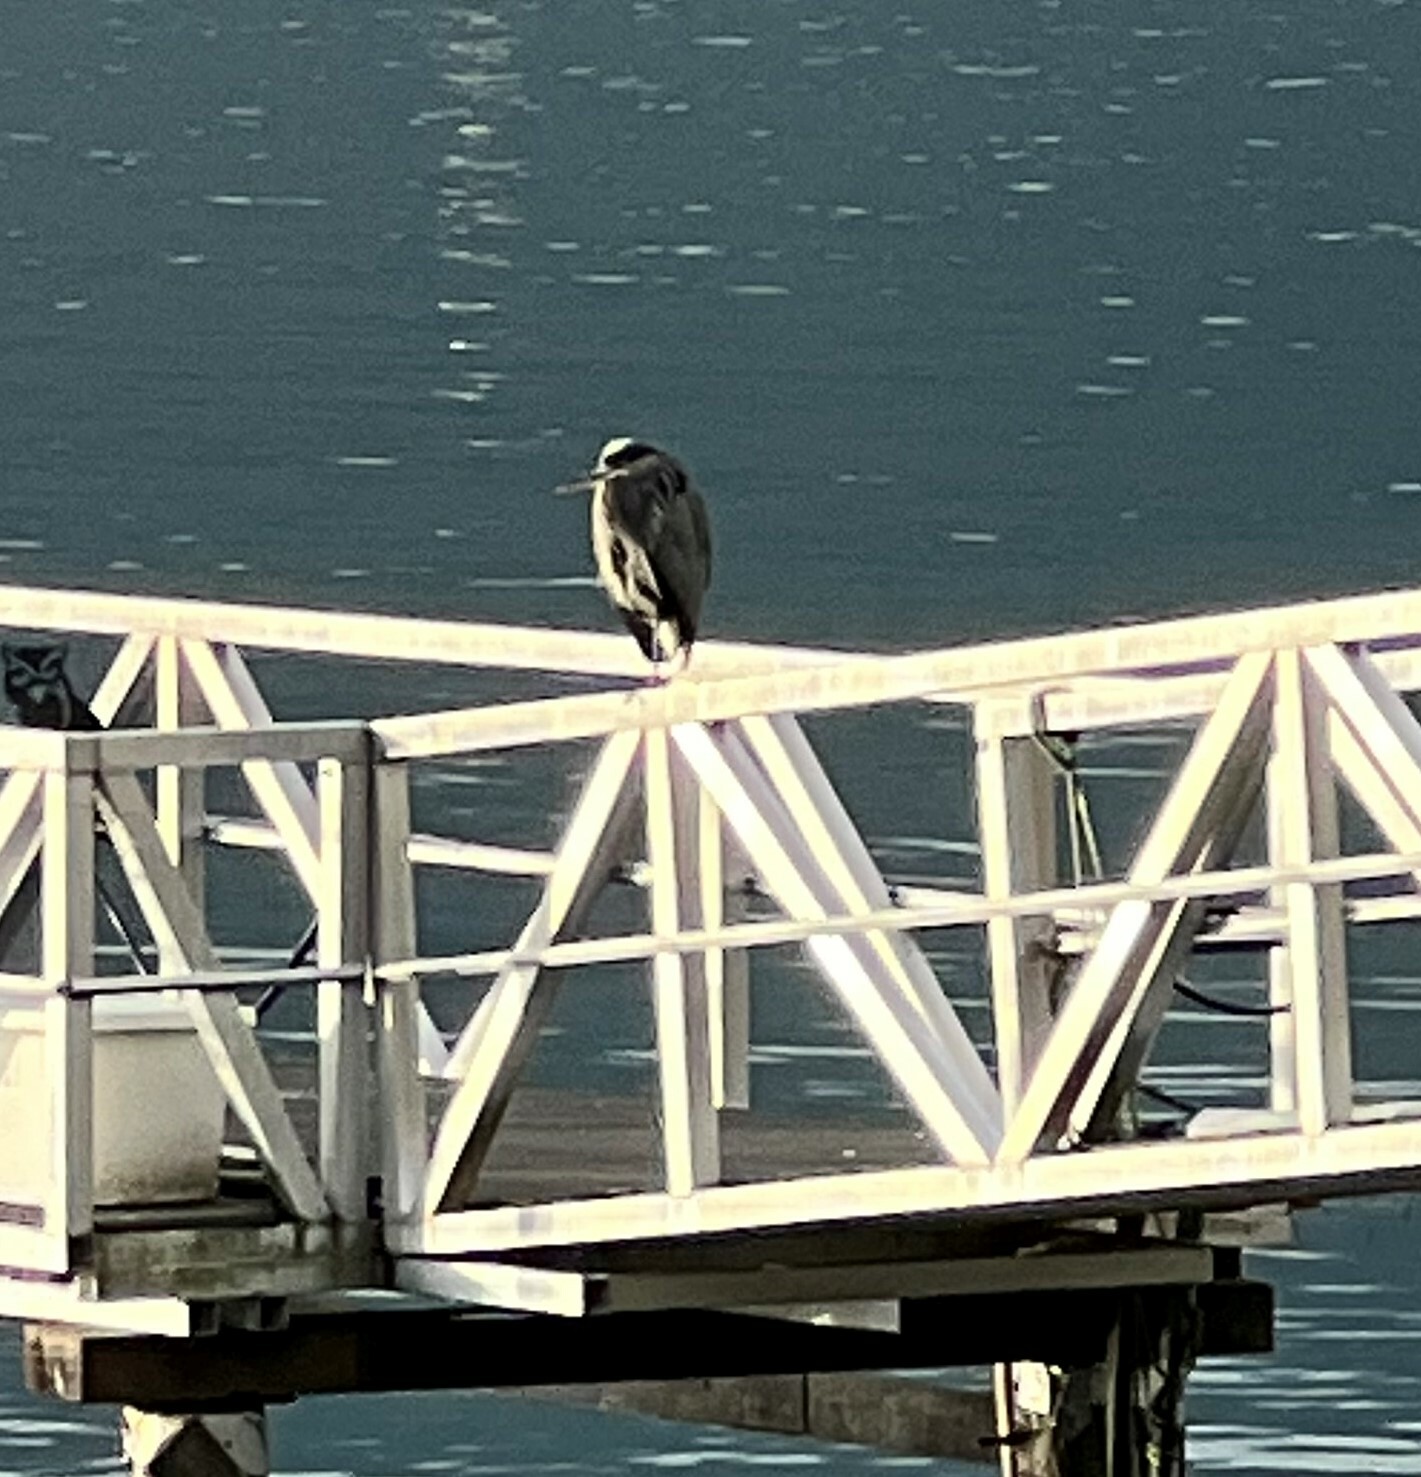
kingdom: Animalia
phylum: Chordata
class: Aves
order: Pelecaniformes
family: Ardeidae
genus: Ardea
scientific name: Ardea herodias
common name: Great blue heron
